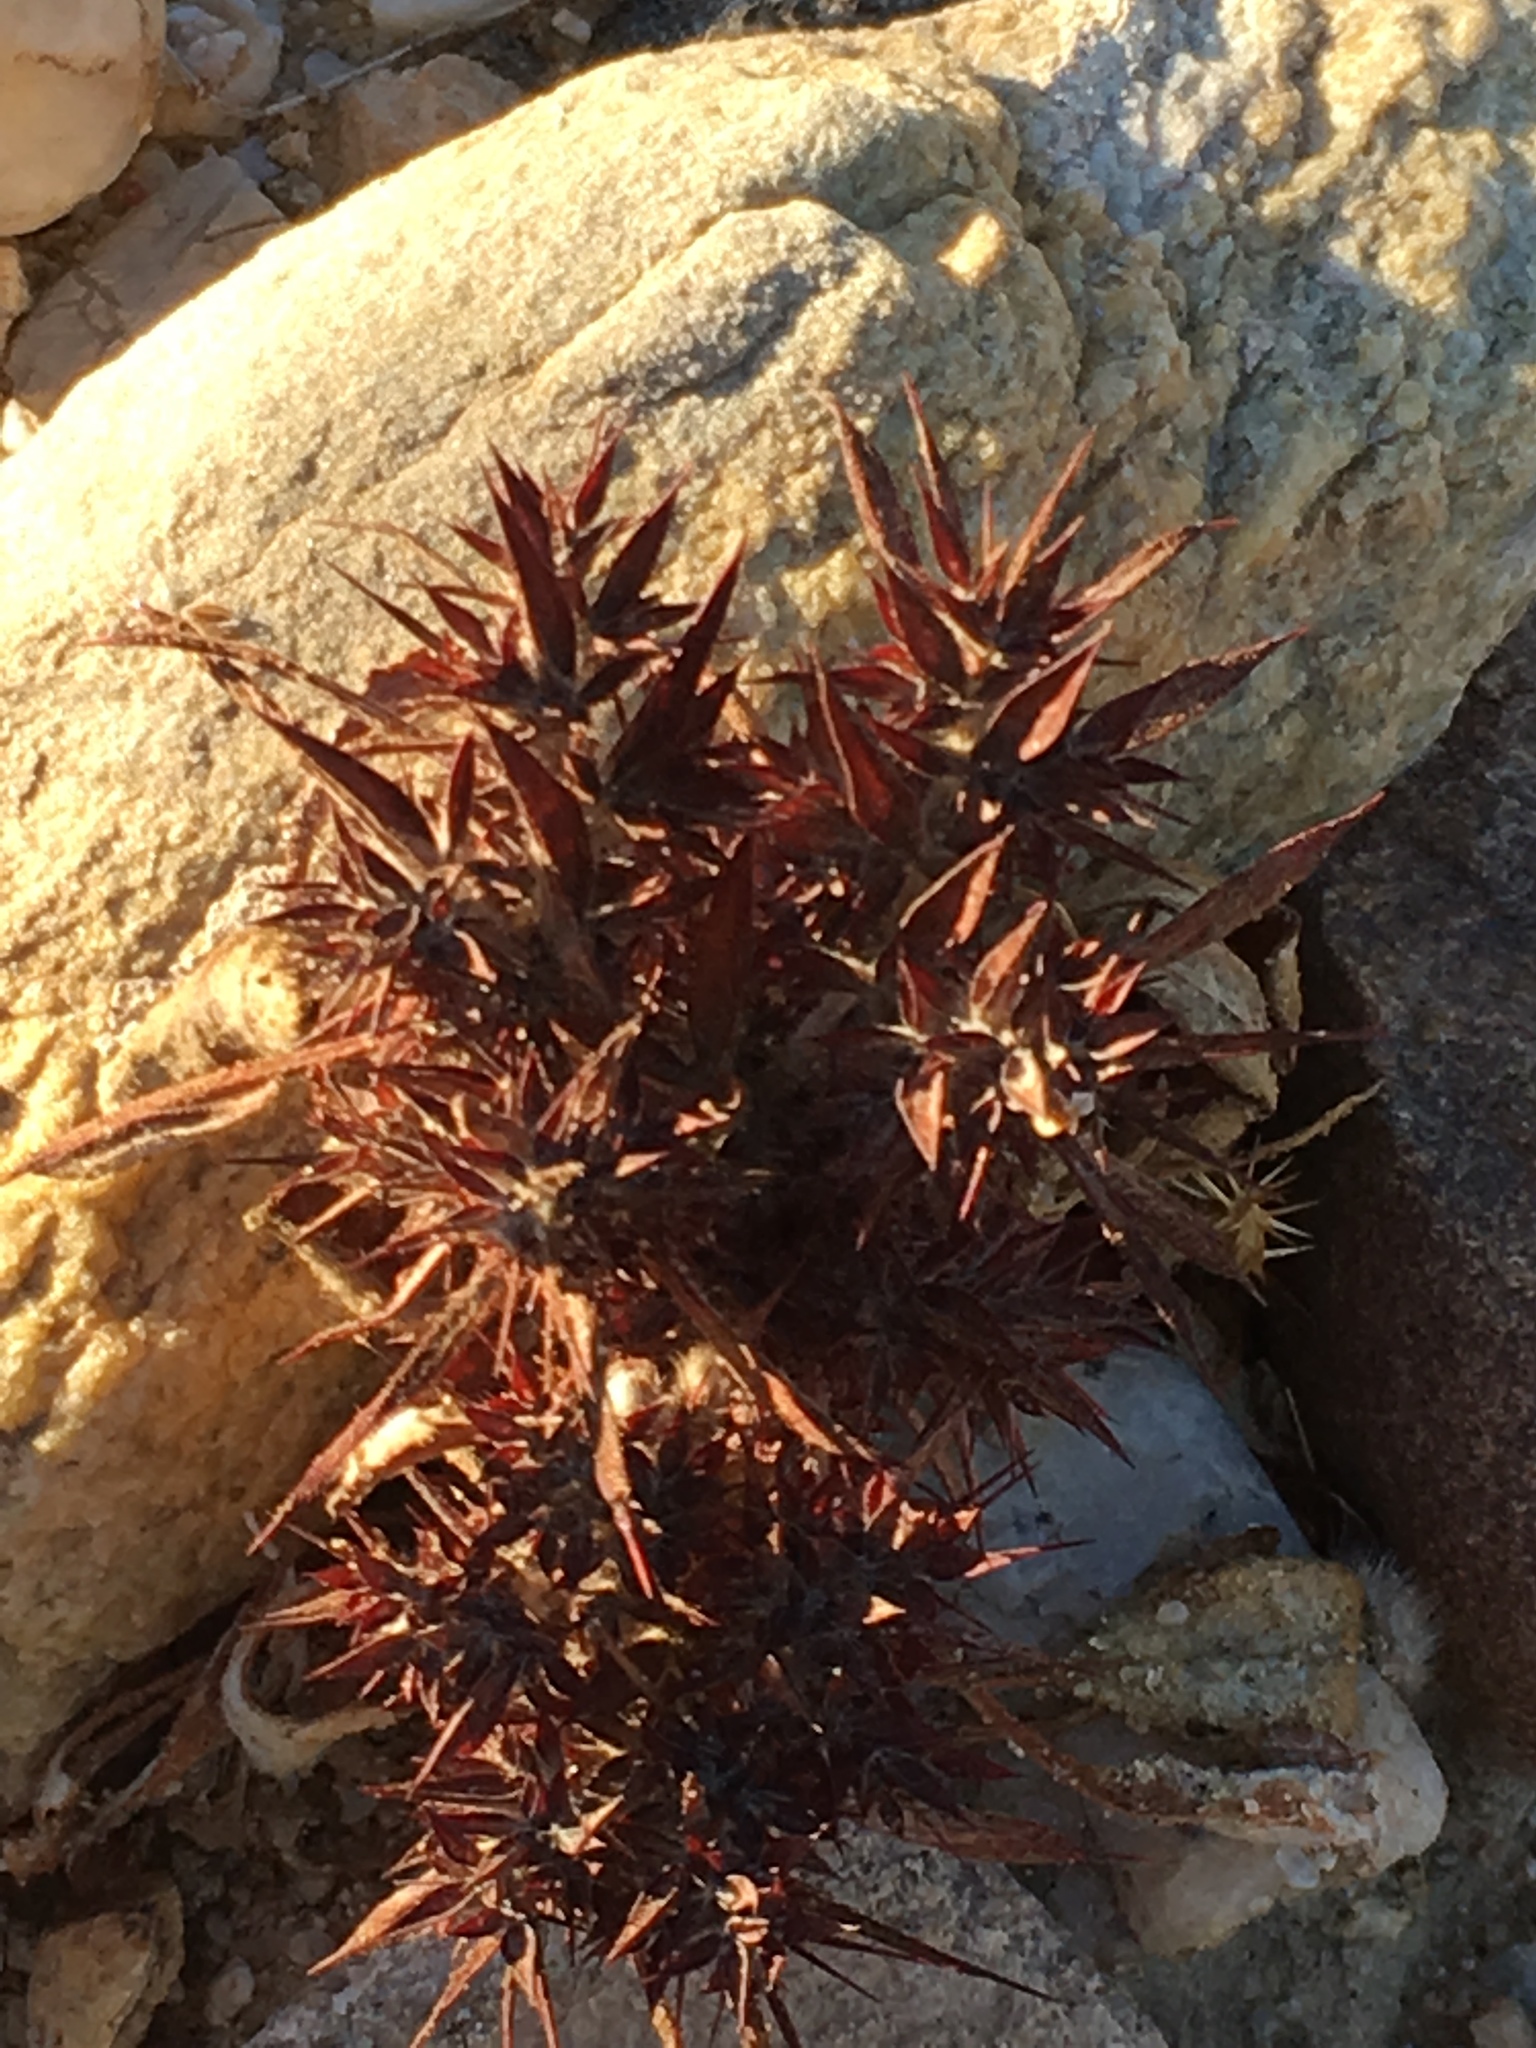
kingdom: Plantae
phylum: Tracheophyta
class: Magnoliopsida
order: Caryophyllales
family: Polygonaceae
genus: Chorizanthe
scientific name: Chorizanthe rigida
